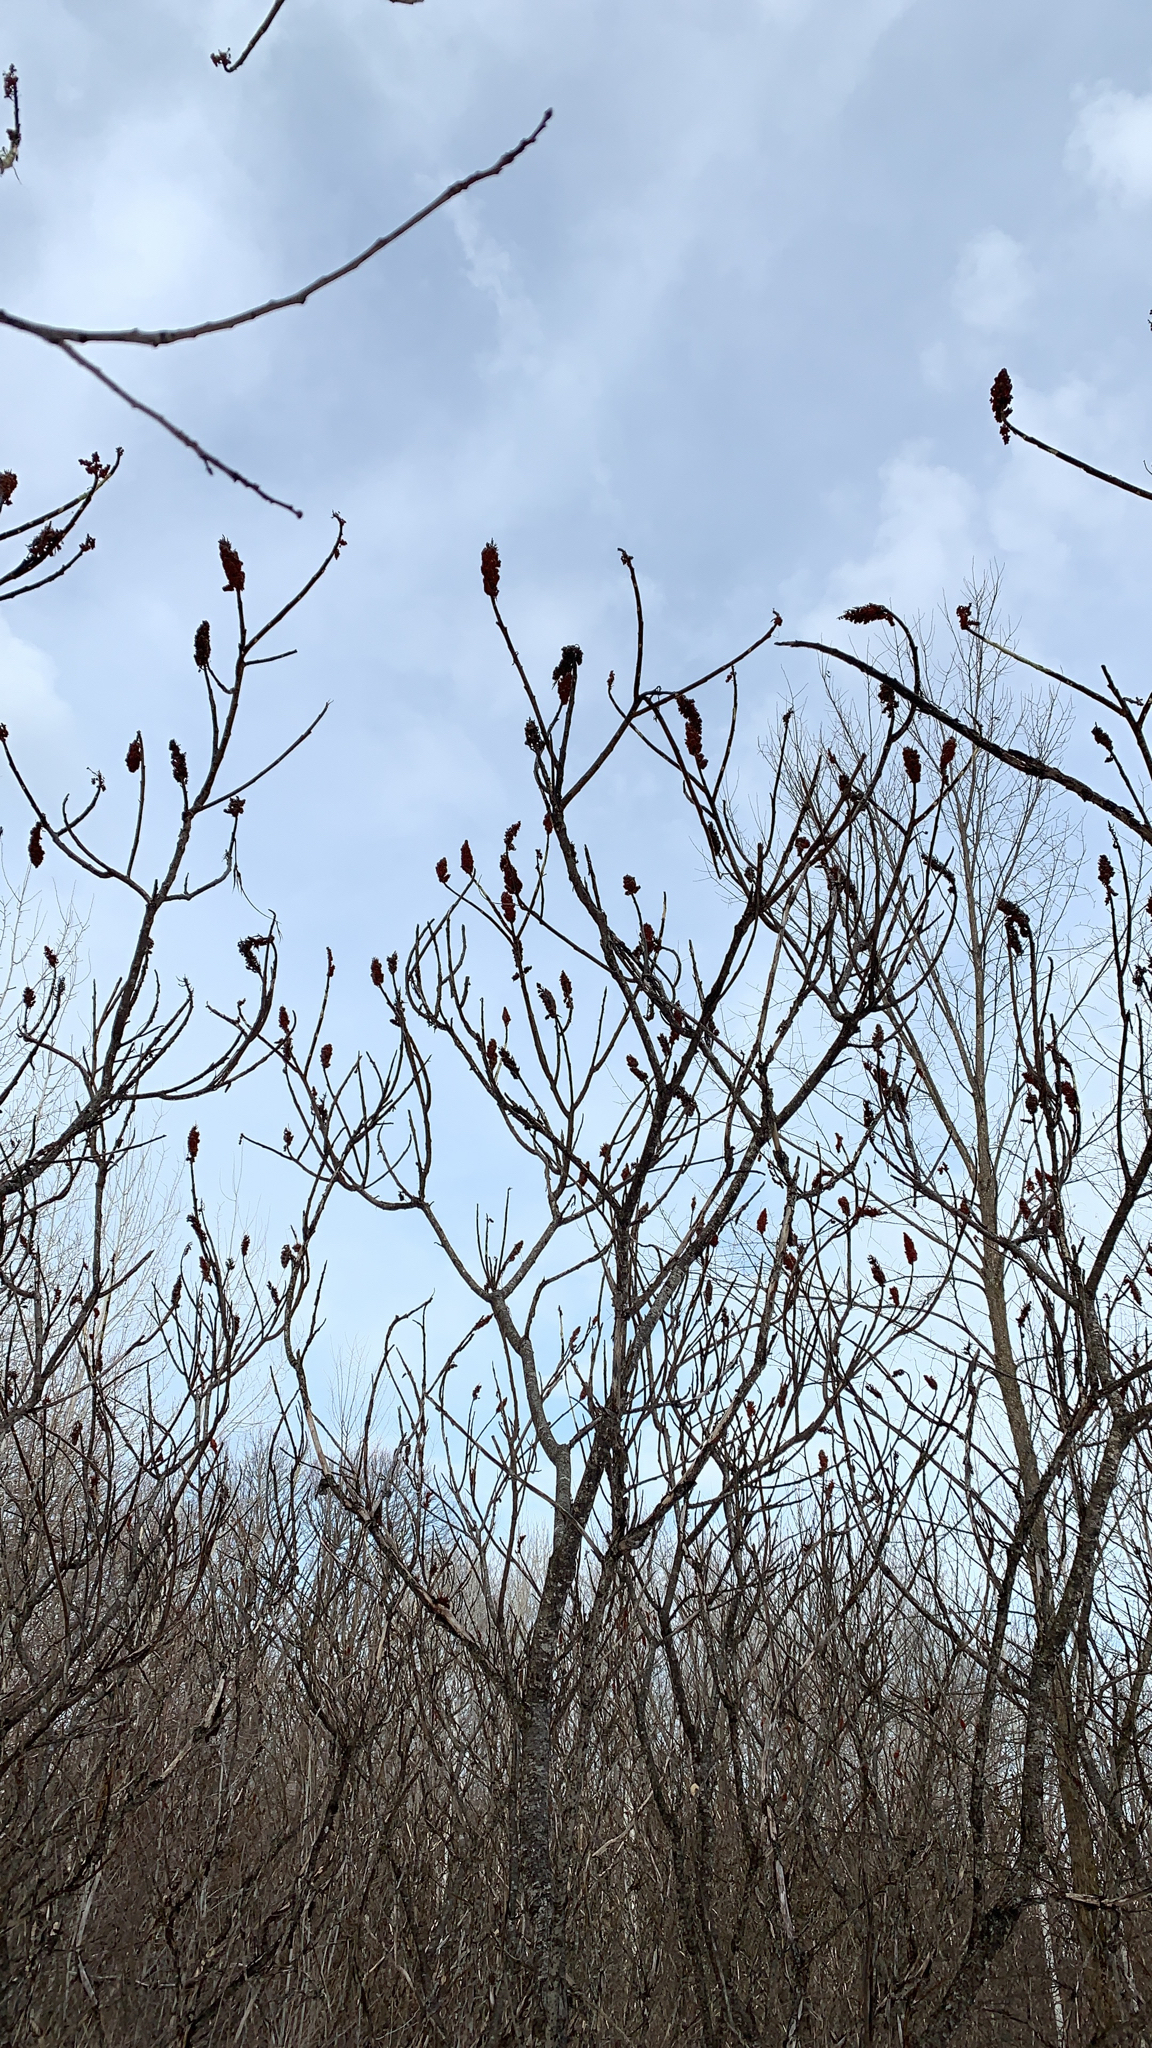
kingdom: Plantae
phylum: Tracheophyta
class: Magnoliopsida
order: Sapindales
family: Anacardiaceae
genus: Rhus
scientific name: Rhus typhina
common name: Staghorn sumac
